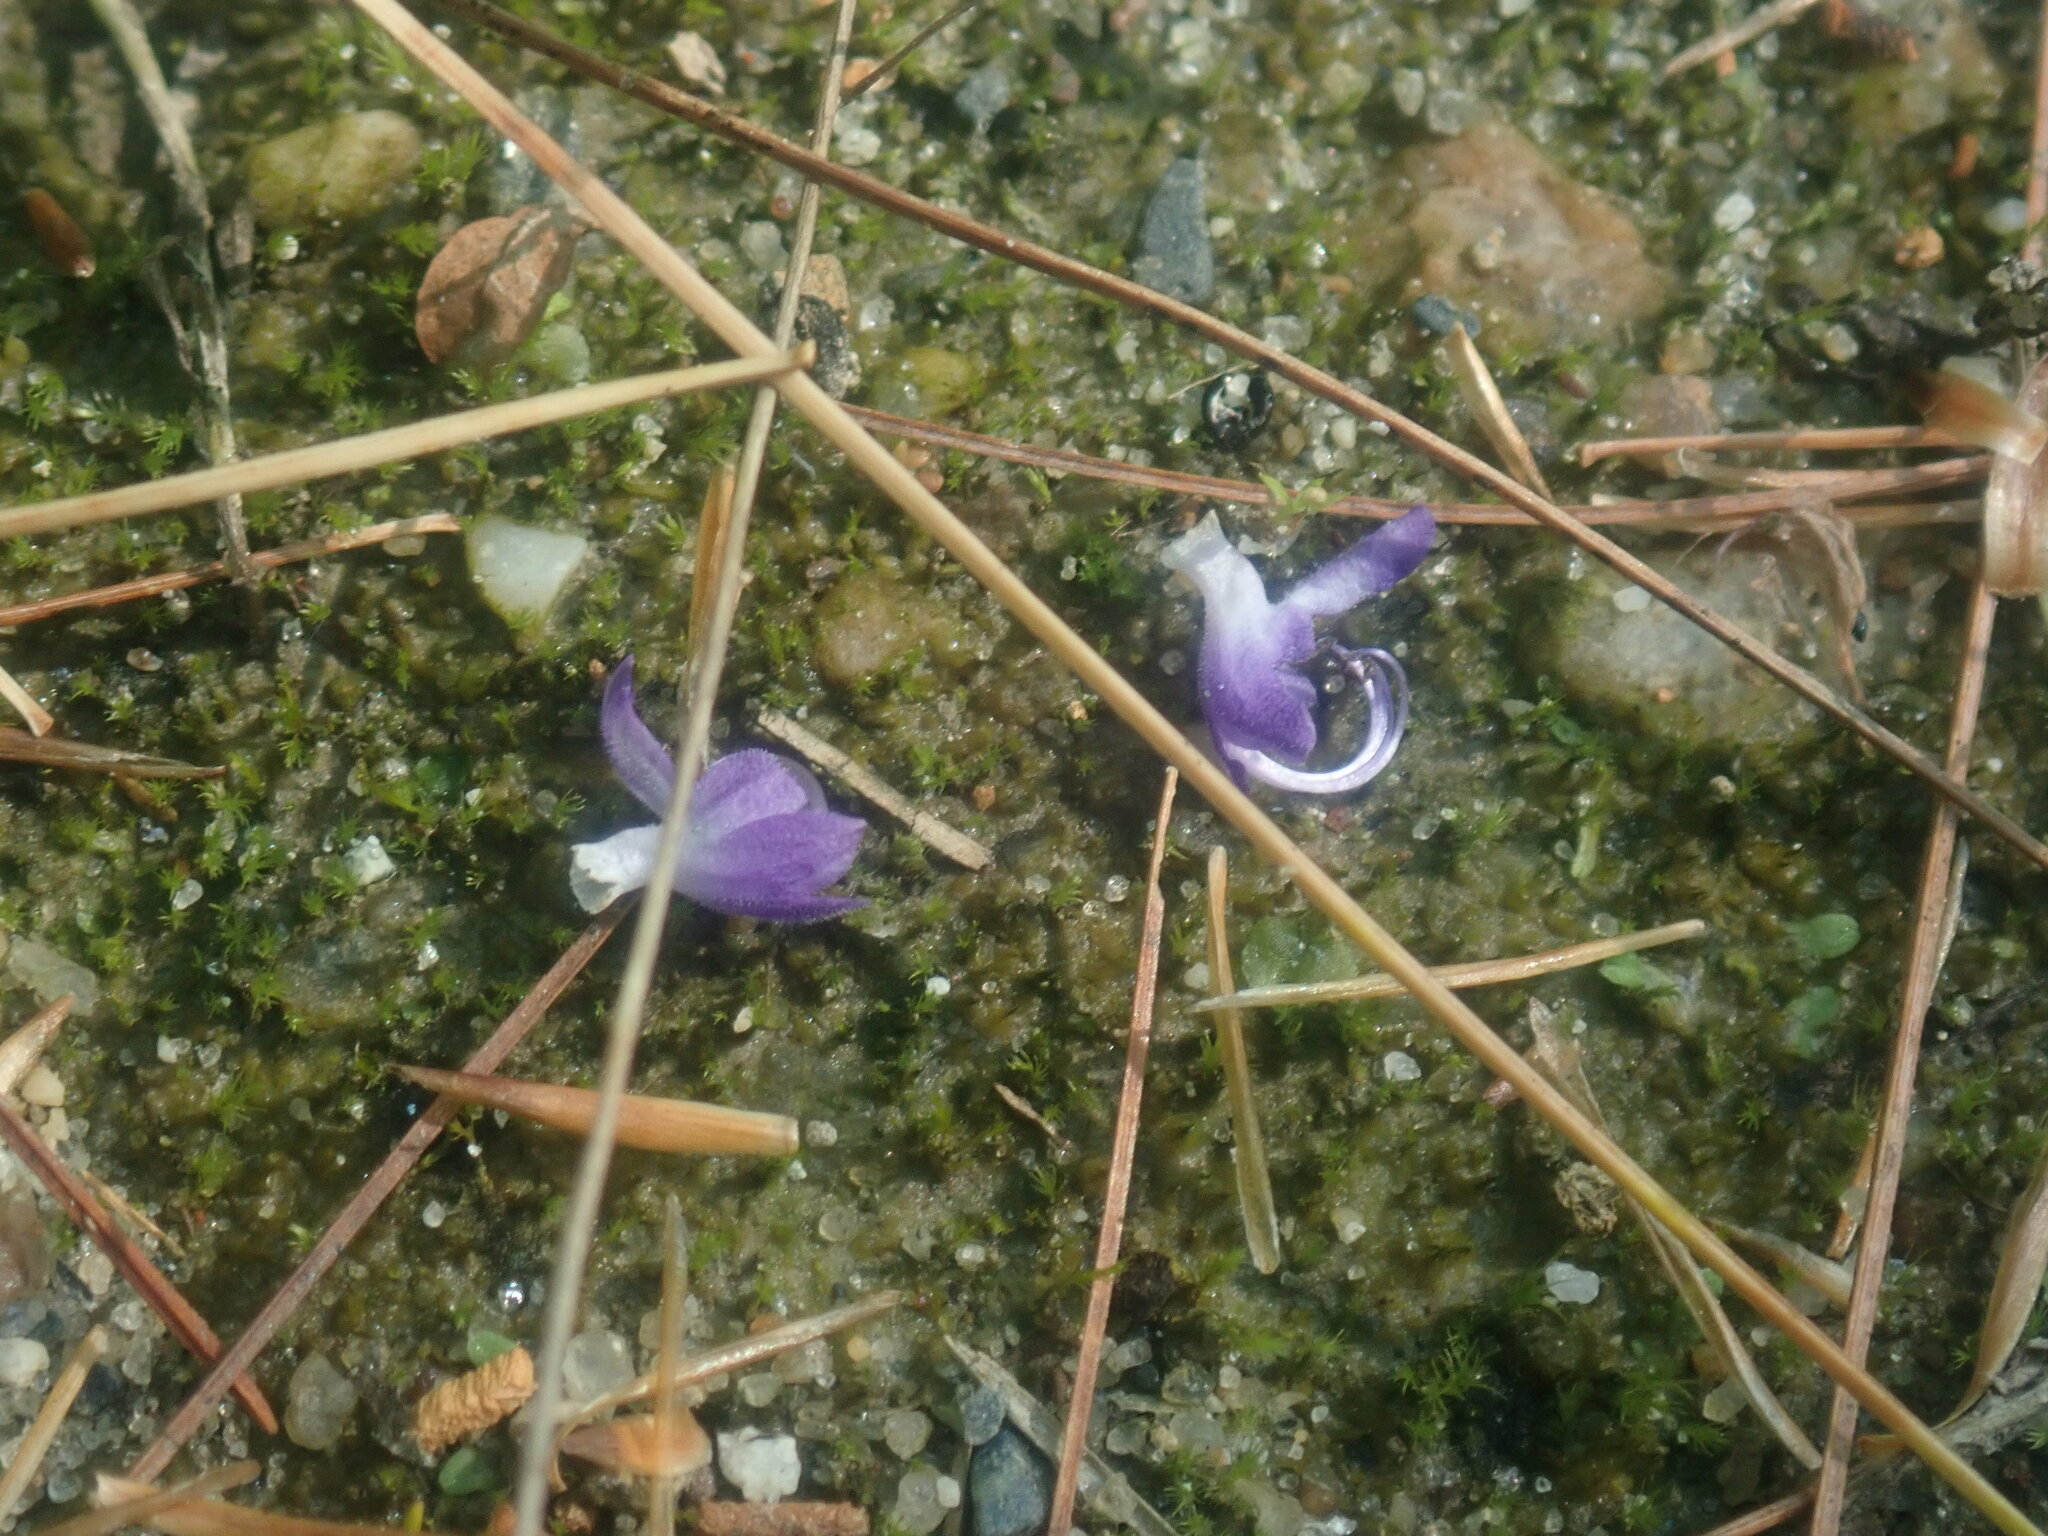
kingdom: Plantae
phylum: Tracheophyta
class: Magnoliopsida
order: Lamiales
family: Lamiaceae
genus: Trichostema
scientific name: Trichostema dichotomum
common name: Bastard pennyroyal
